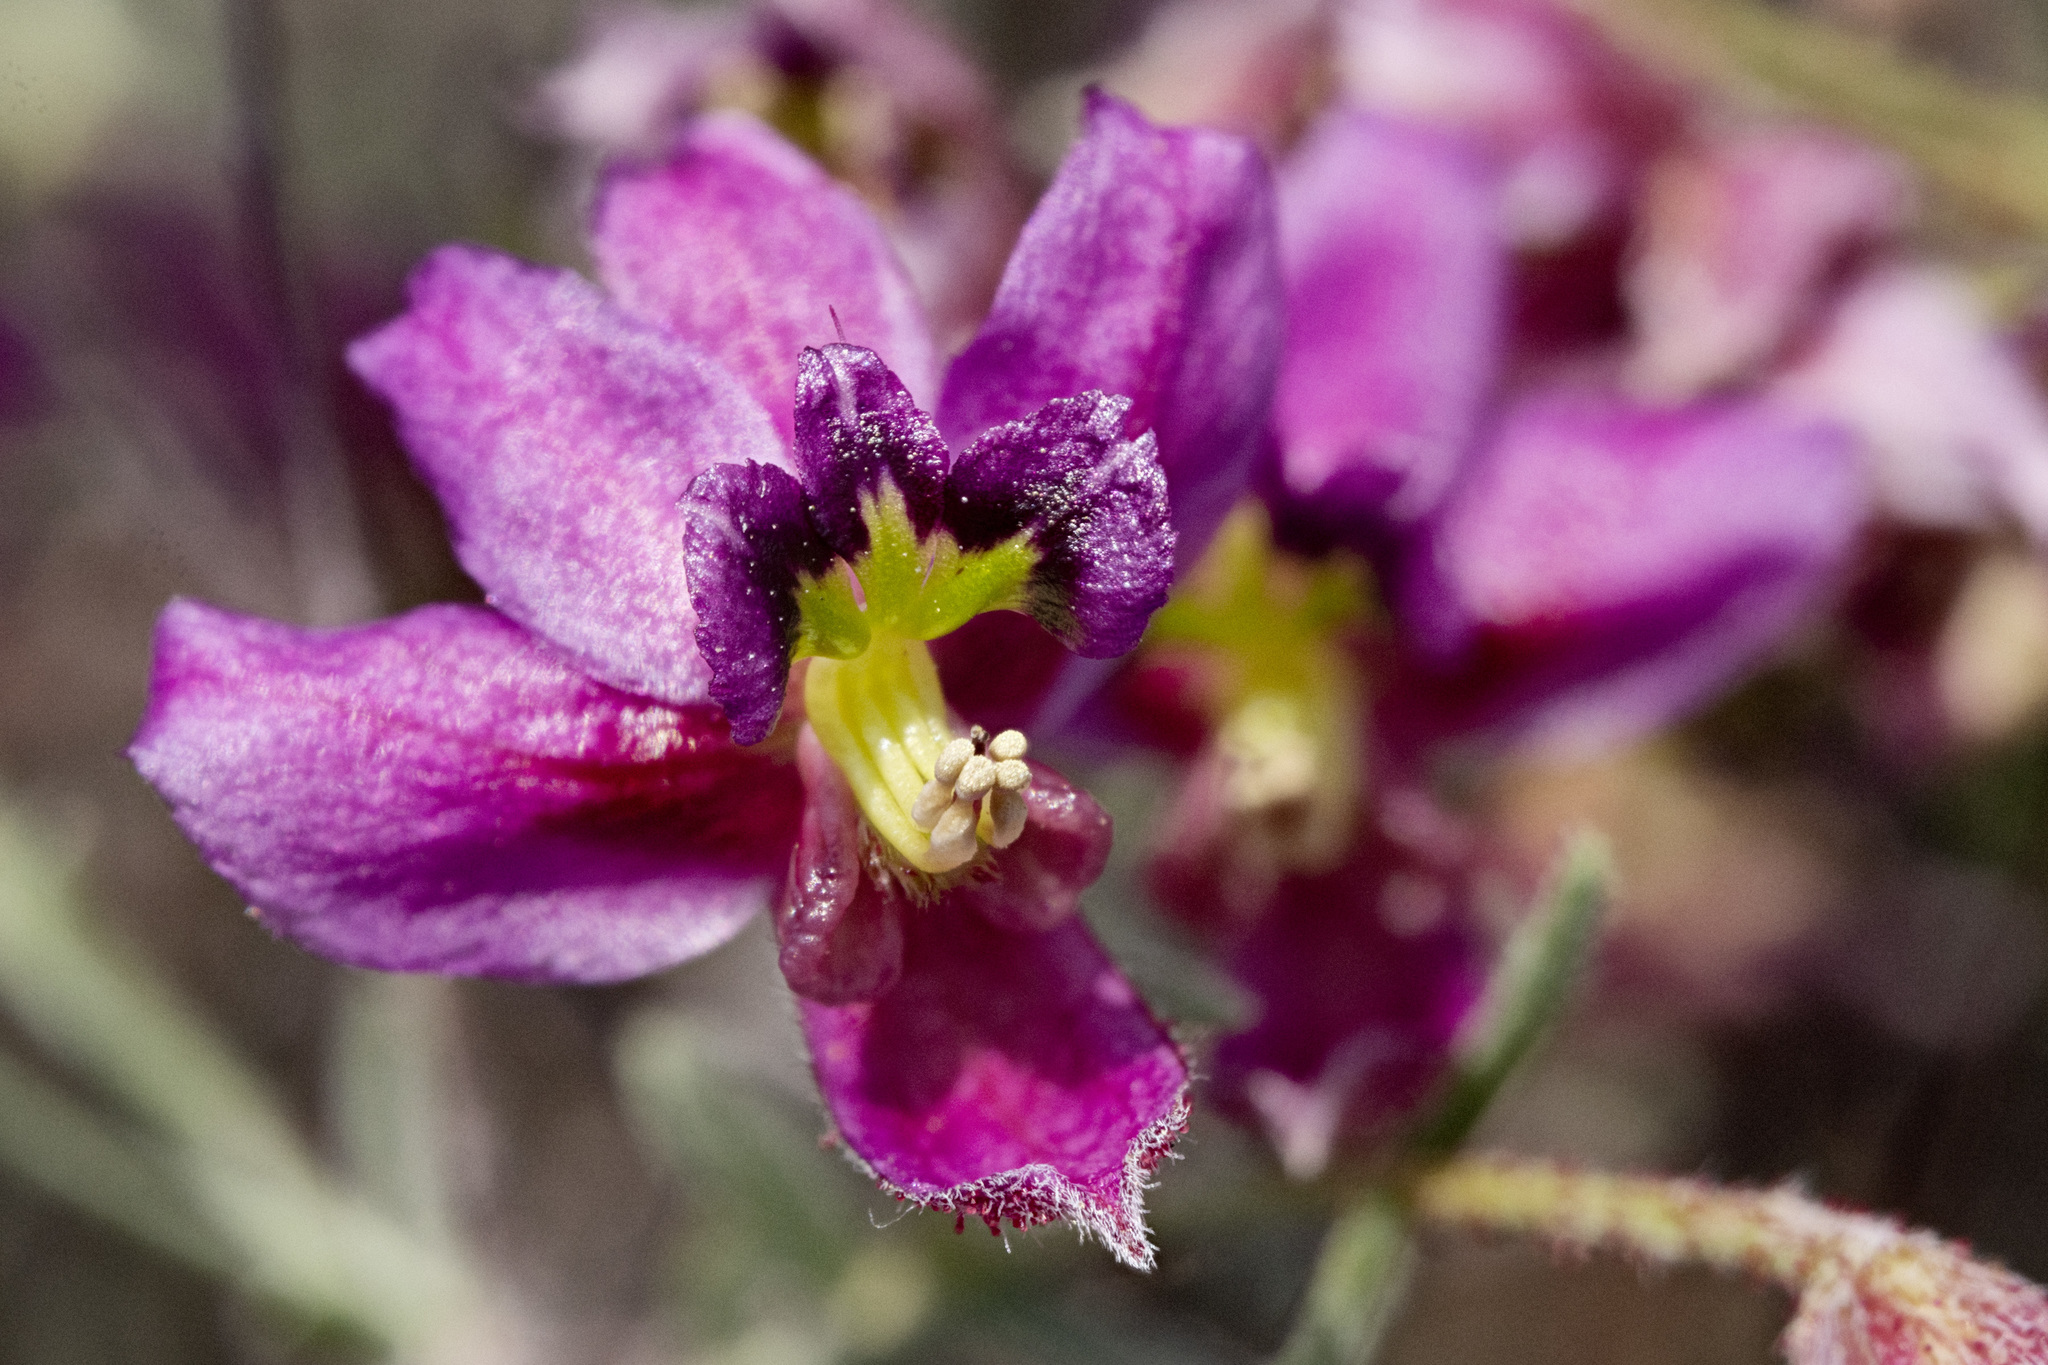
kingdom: Plantae
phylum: Tracheophyta
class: Magnoliopsida
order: Zygophyllales
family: Krameriaceae
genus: Krameria
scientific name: Krameria erecta
